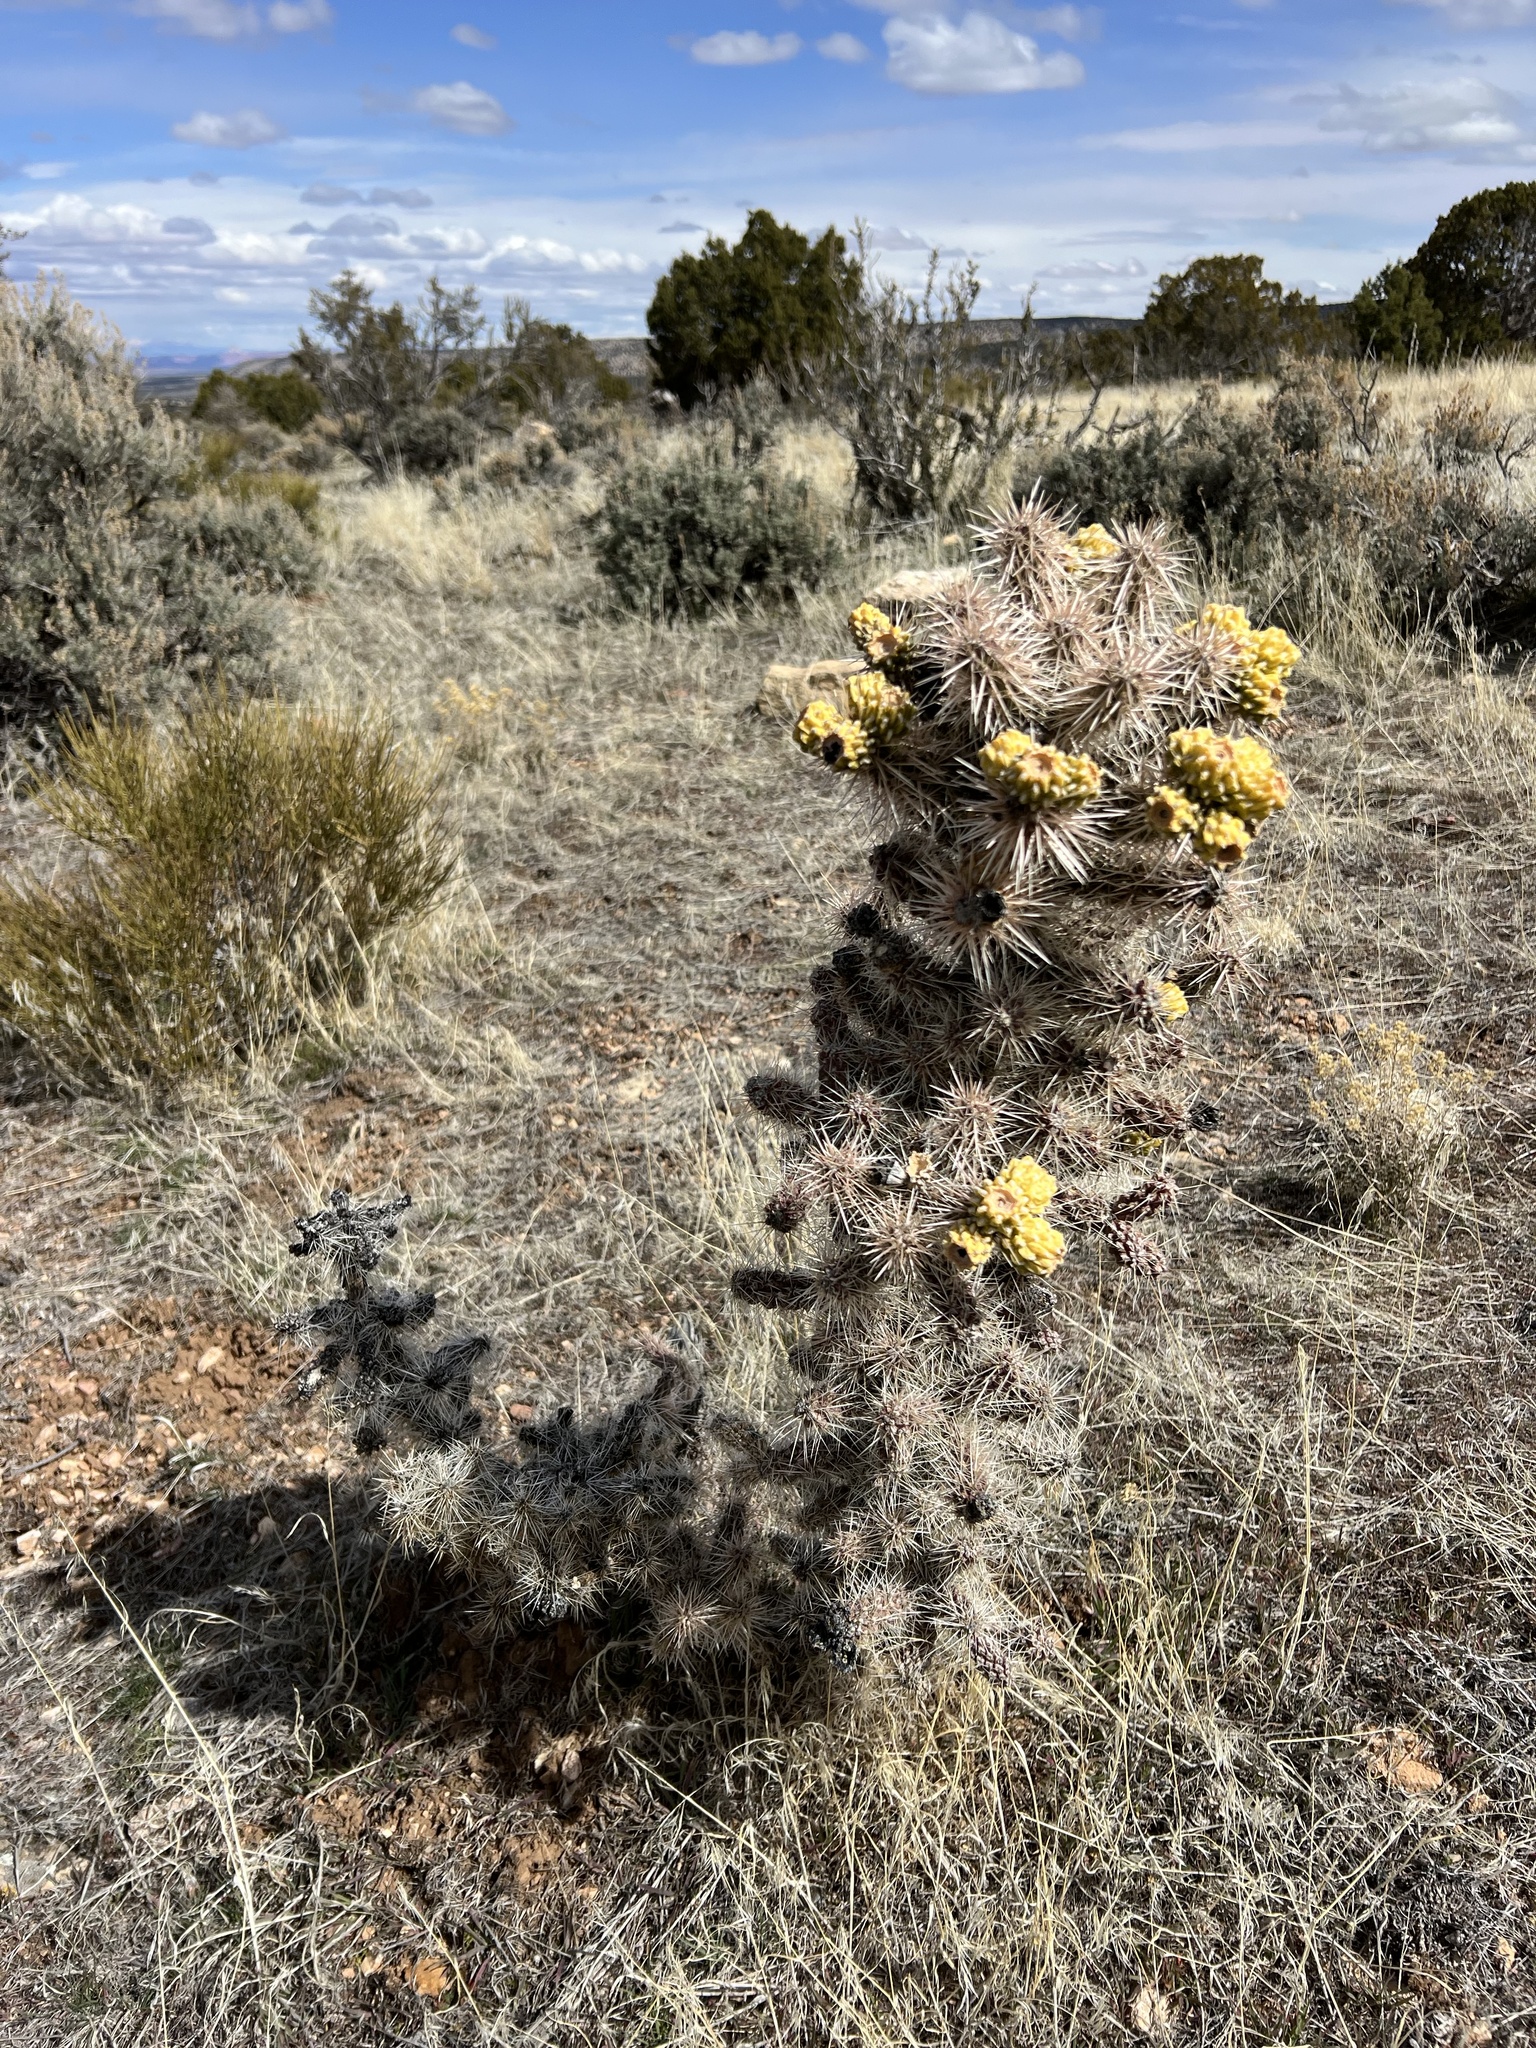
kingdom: Plantae
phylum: Tracheophyta
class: Magnoliopsida
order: Caryophyllales
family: Cactaceae
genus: Cylindropuntia
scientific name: Cylindropuntia whipplei
